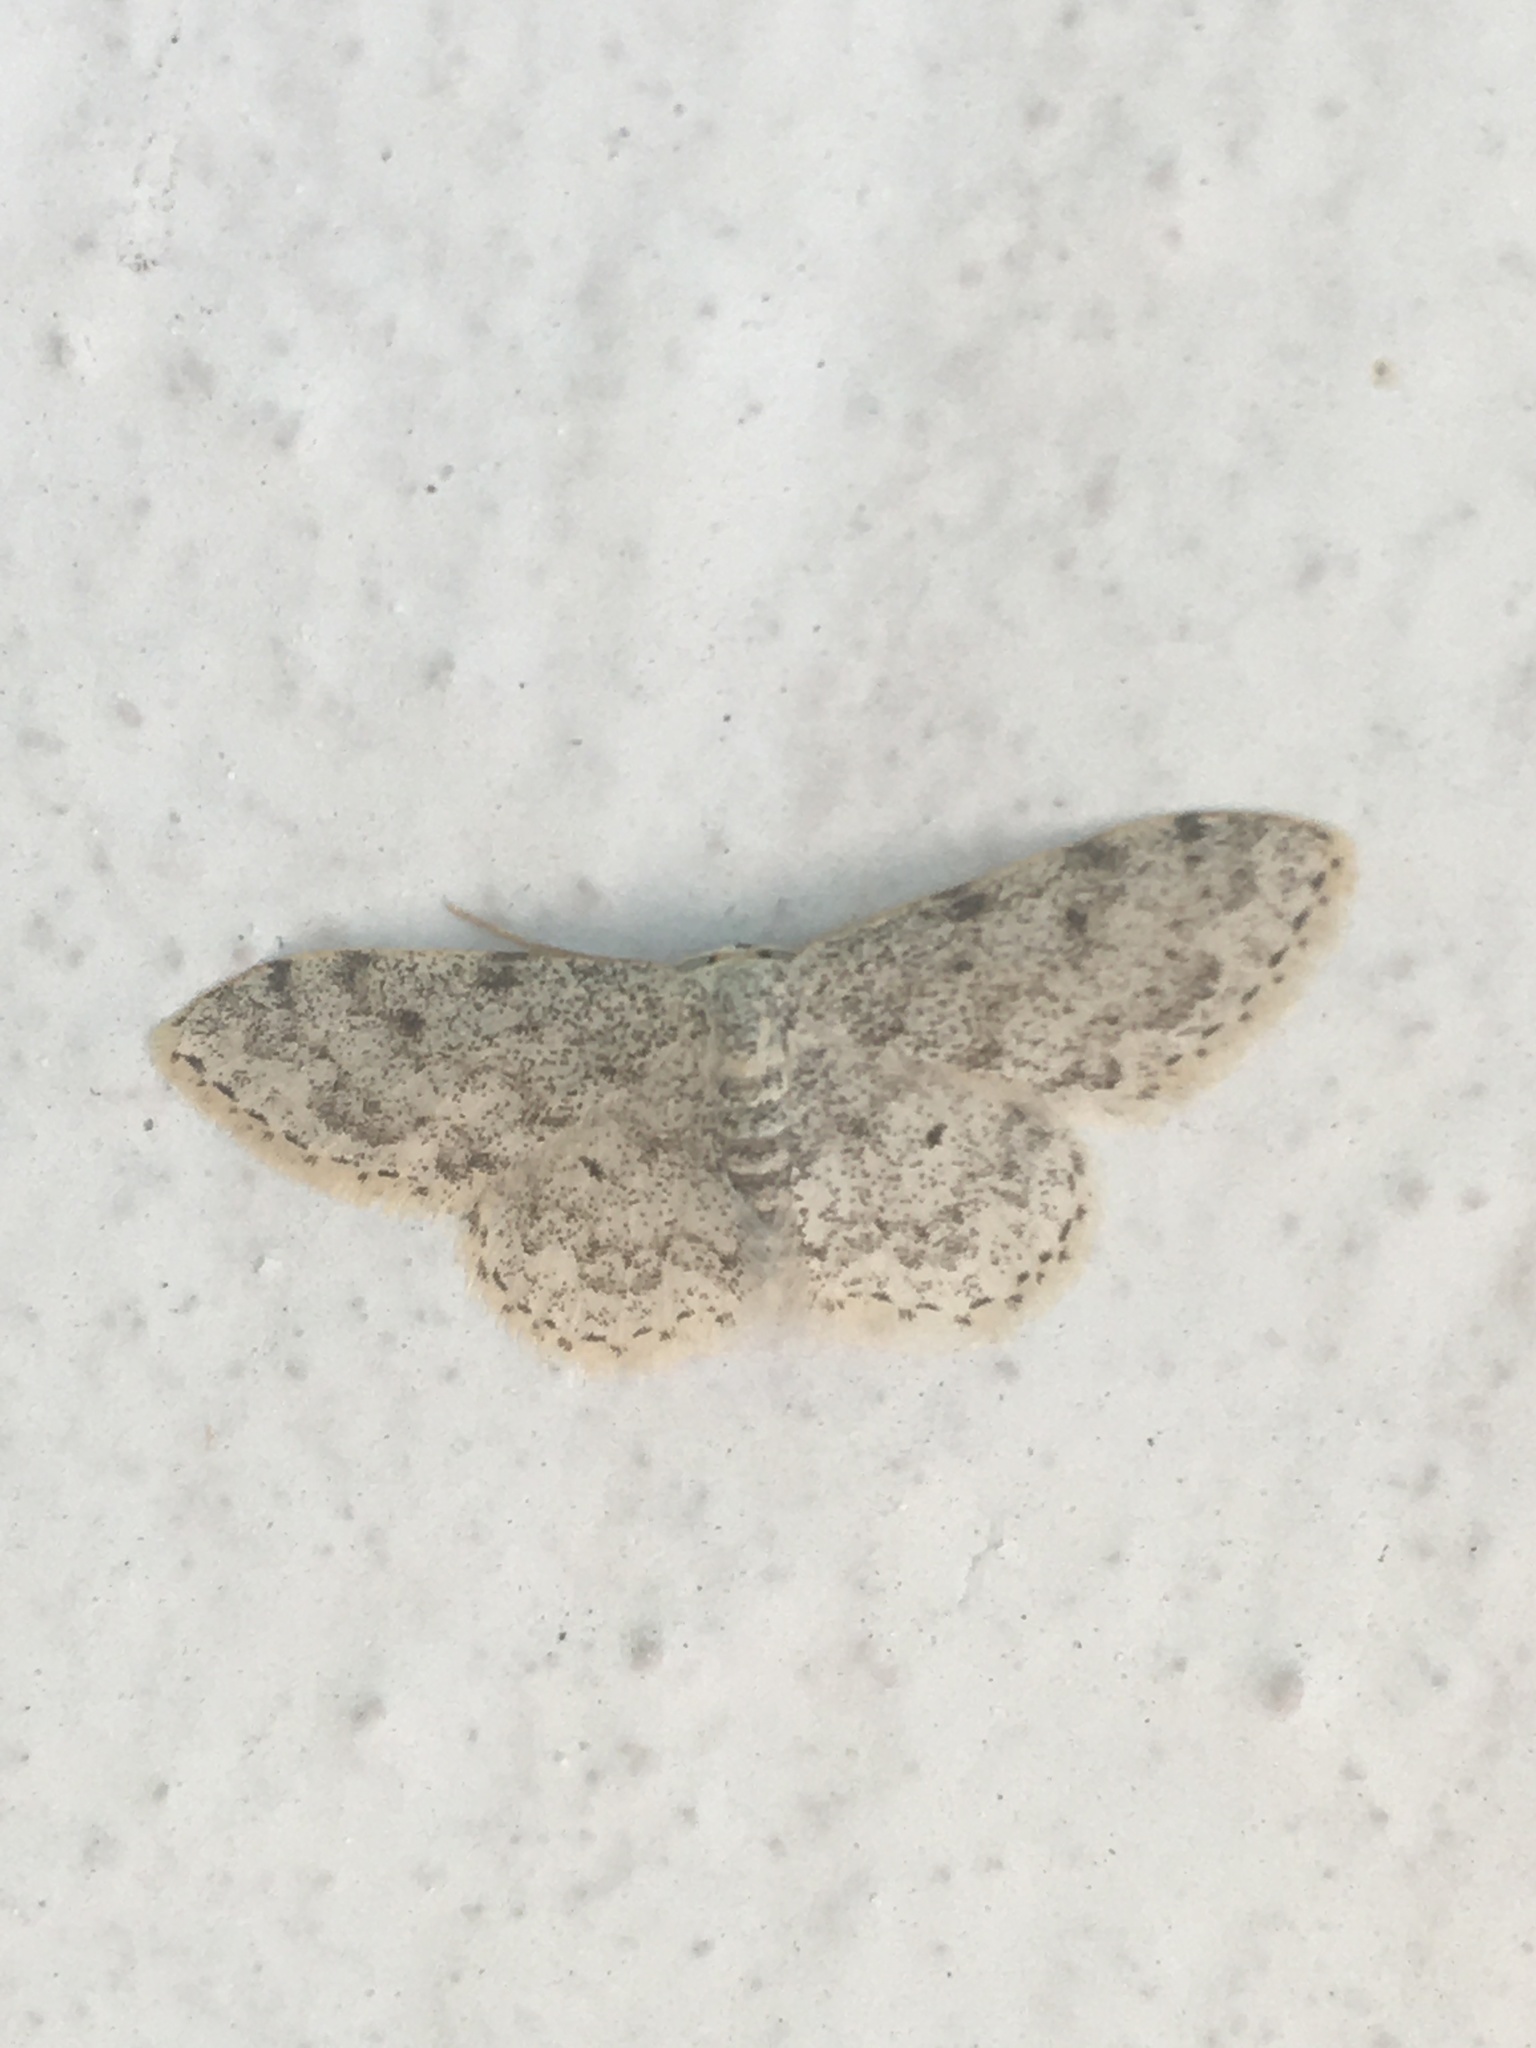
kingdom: Animalia
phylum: Arthropoda
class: Insecta
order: Lepidoptera
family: Geometridae
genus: Idaea
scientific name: Idaea camparia
